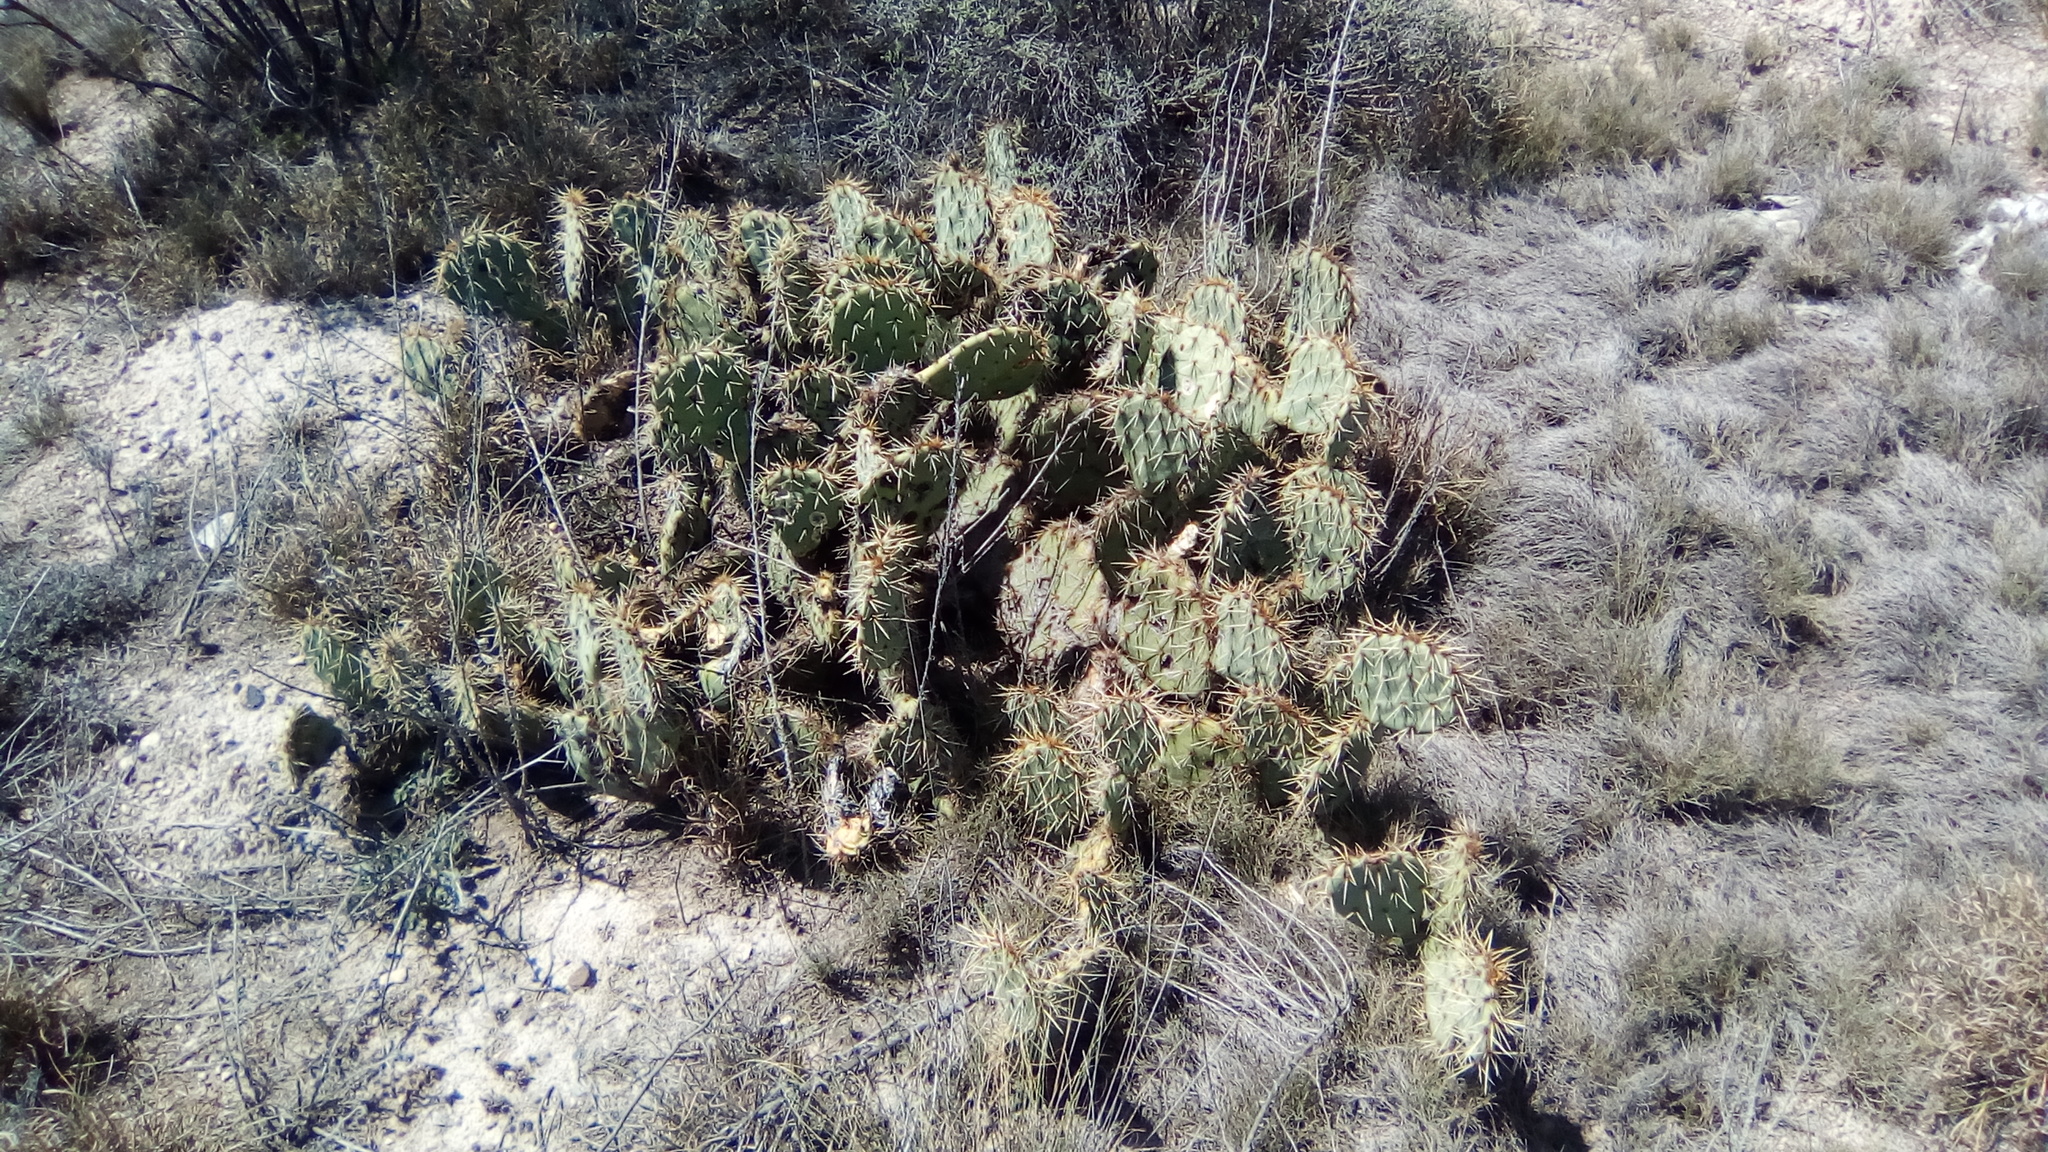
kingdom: Plantae
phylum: Tracheophyta
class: Magnoliopsida
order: Caryophyllales
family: Cactaceae
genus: Opuntia
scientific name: Opuntia engelmannii
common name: Cactus-apple
